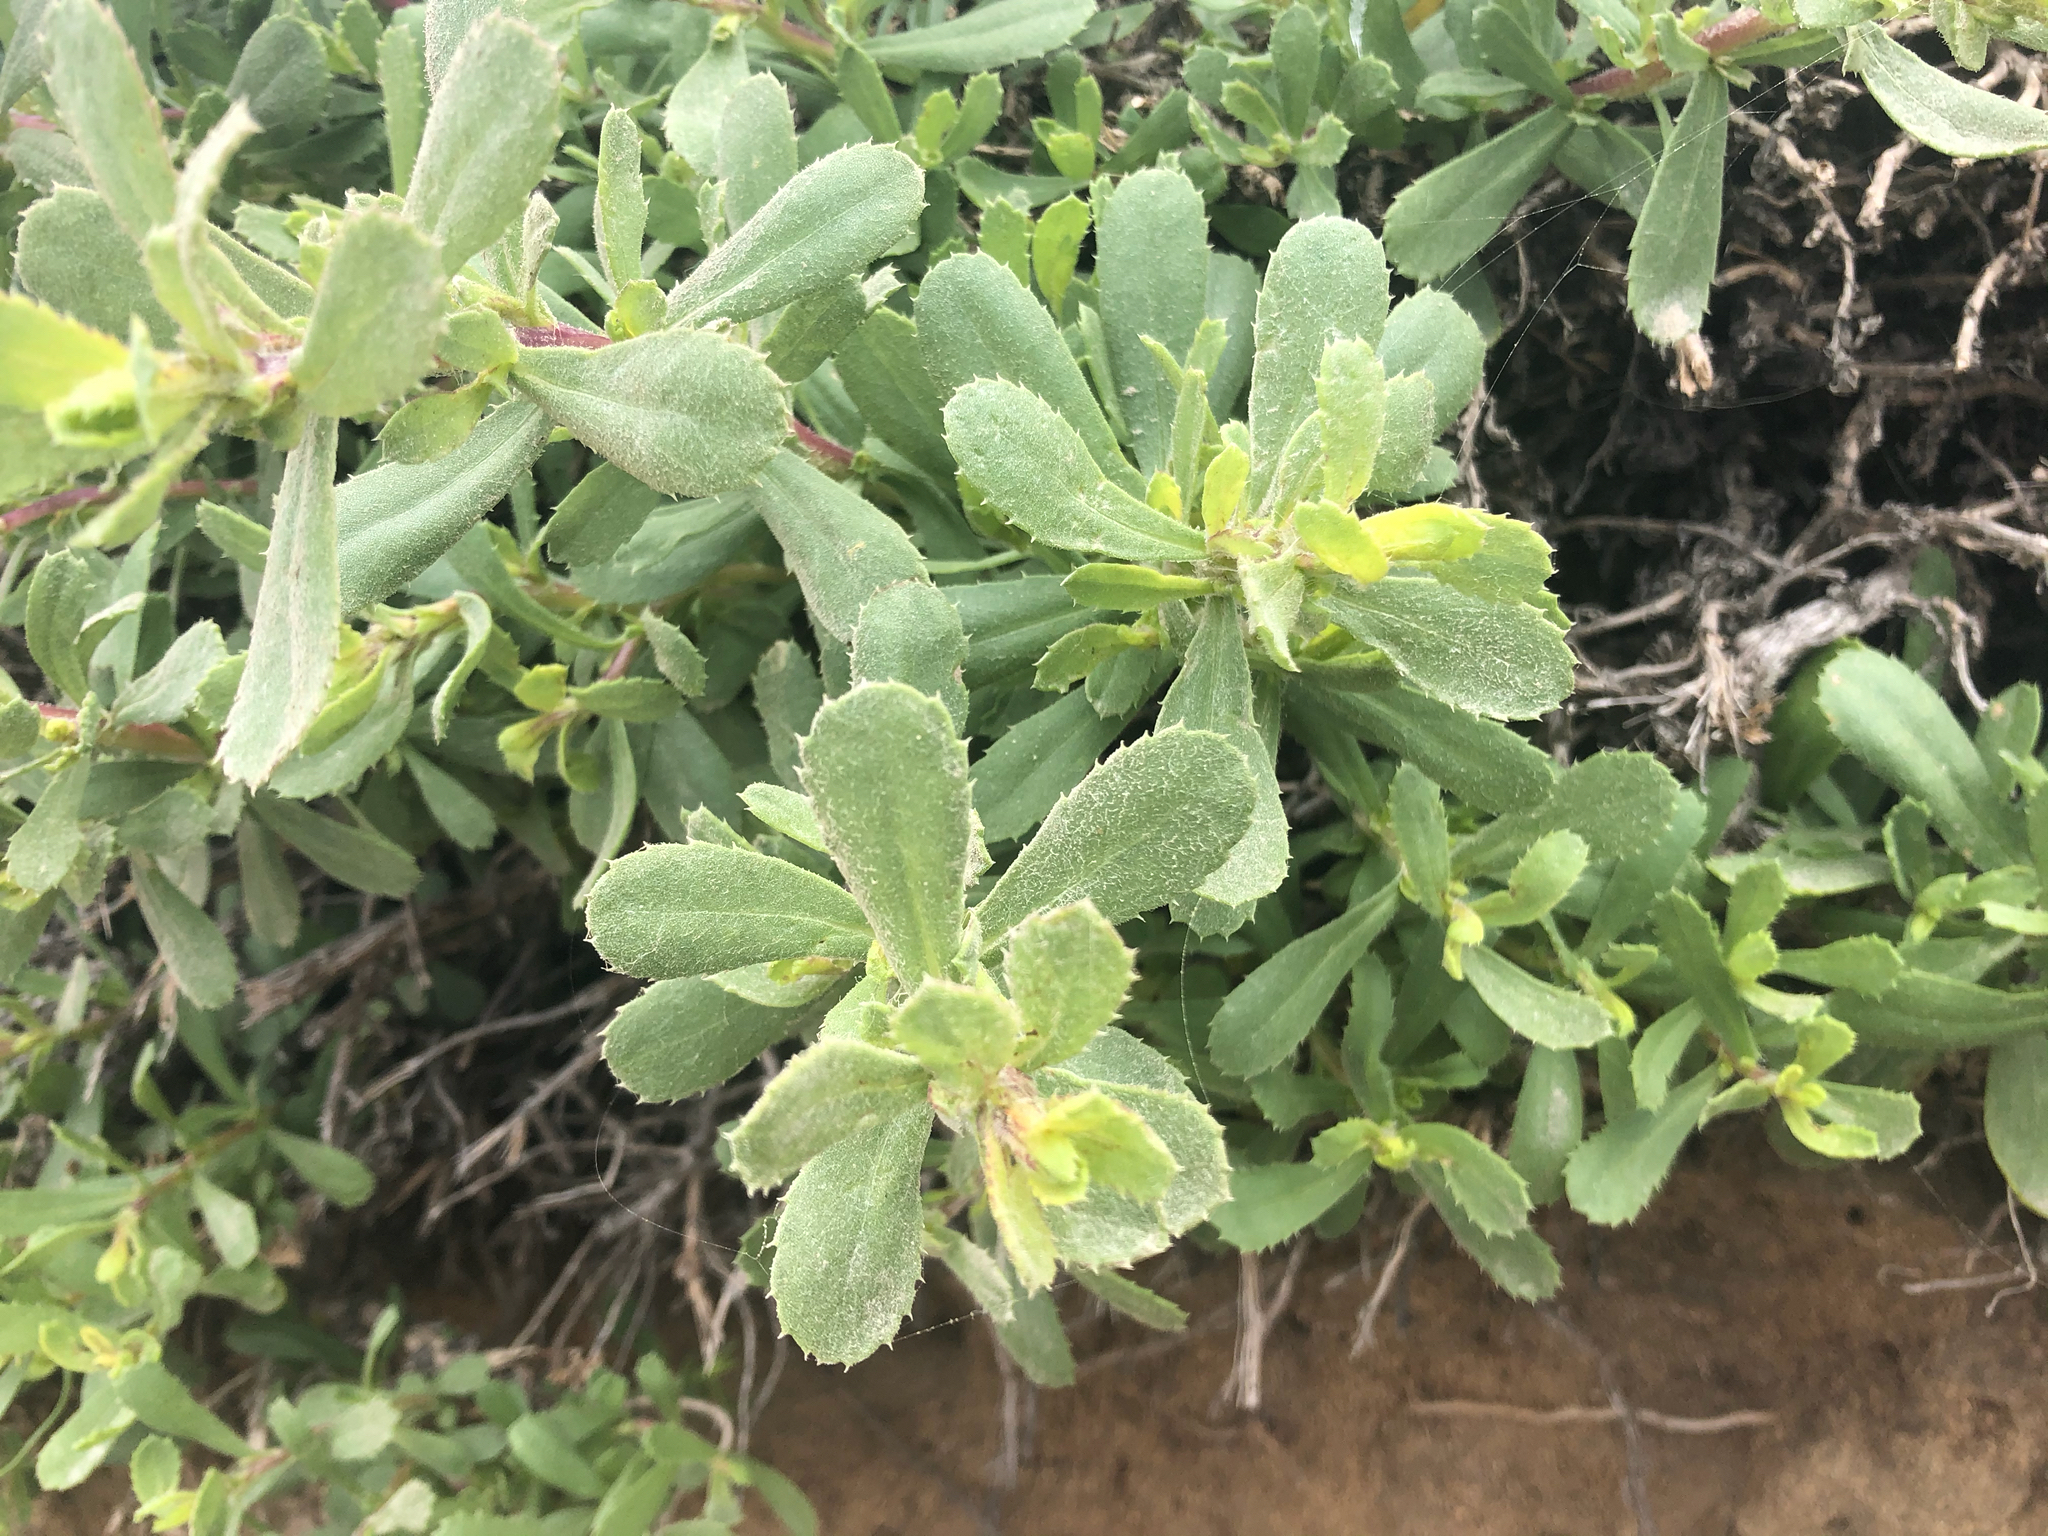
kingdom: Plantae
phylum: Tracheophyta
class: Magnoliopsida
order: Asterales
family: Asteraceae
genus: Isocoma
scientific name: Isocoma menziesii
